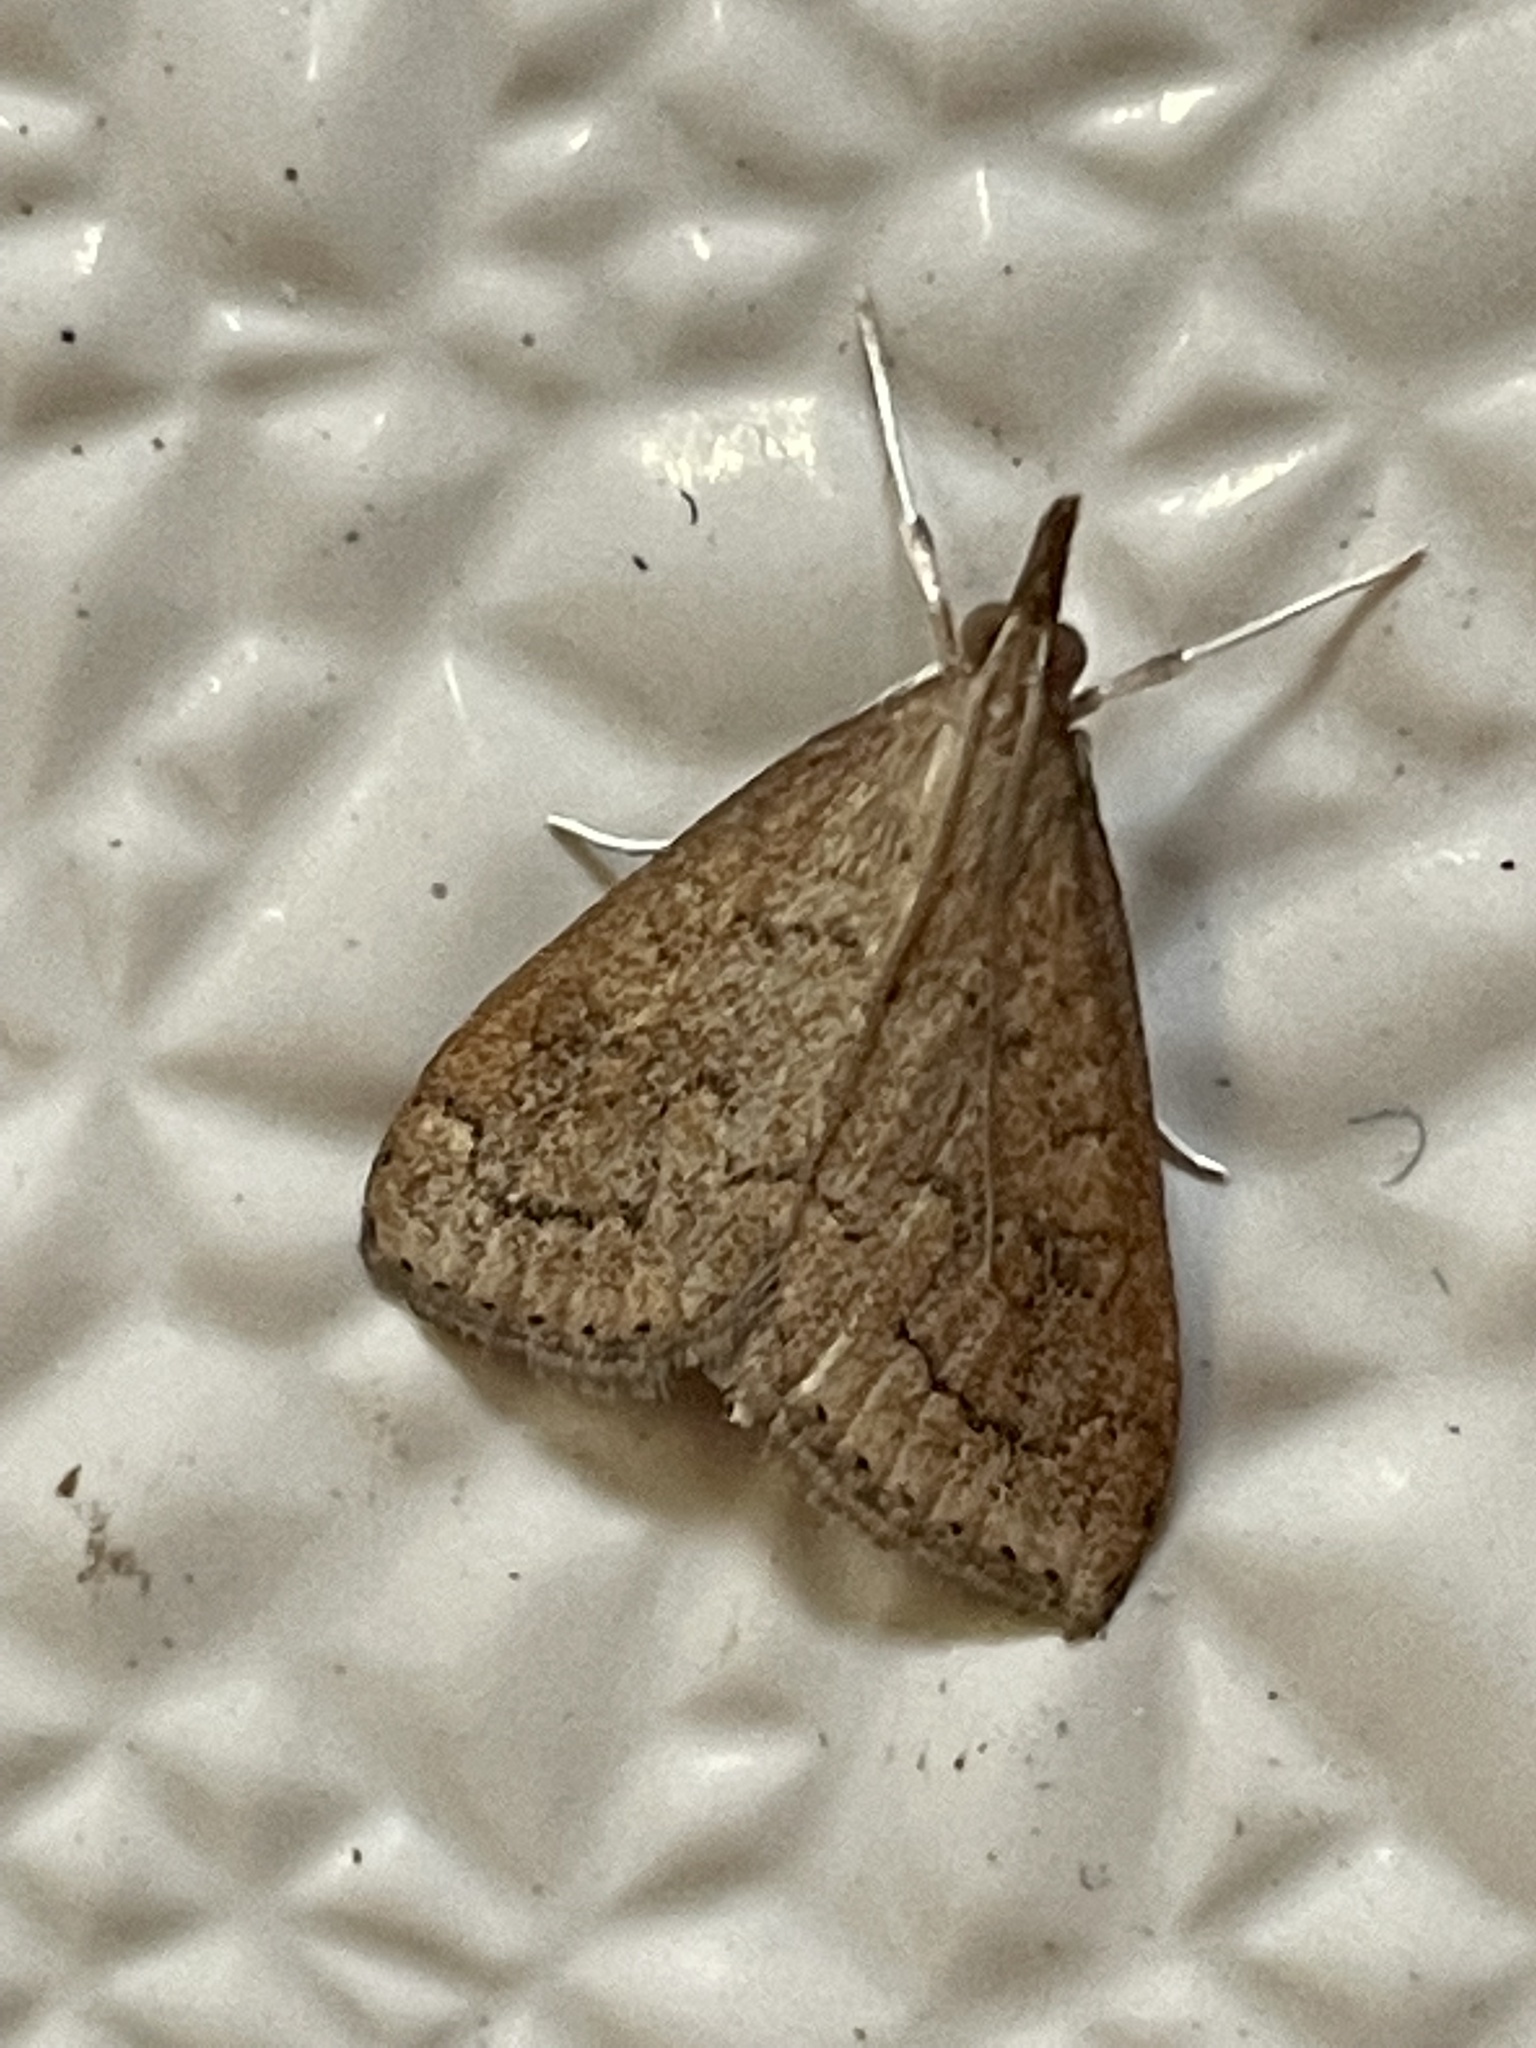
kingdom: Animalia
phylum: Arthropoda
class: Insecta
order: Lepidoptera
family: Crambidae
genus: Udea
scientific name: Udea rubigalis
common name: Celery leaftier moth
